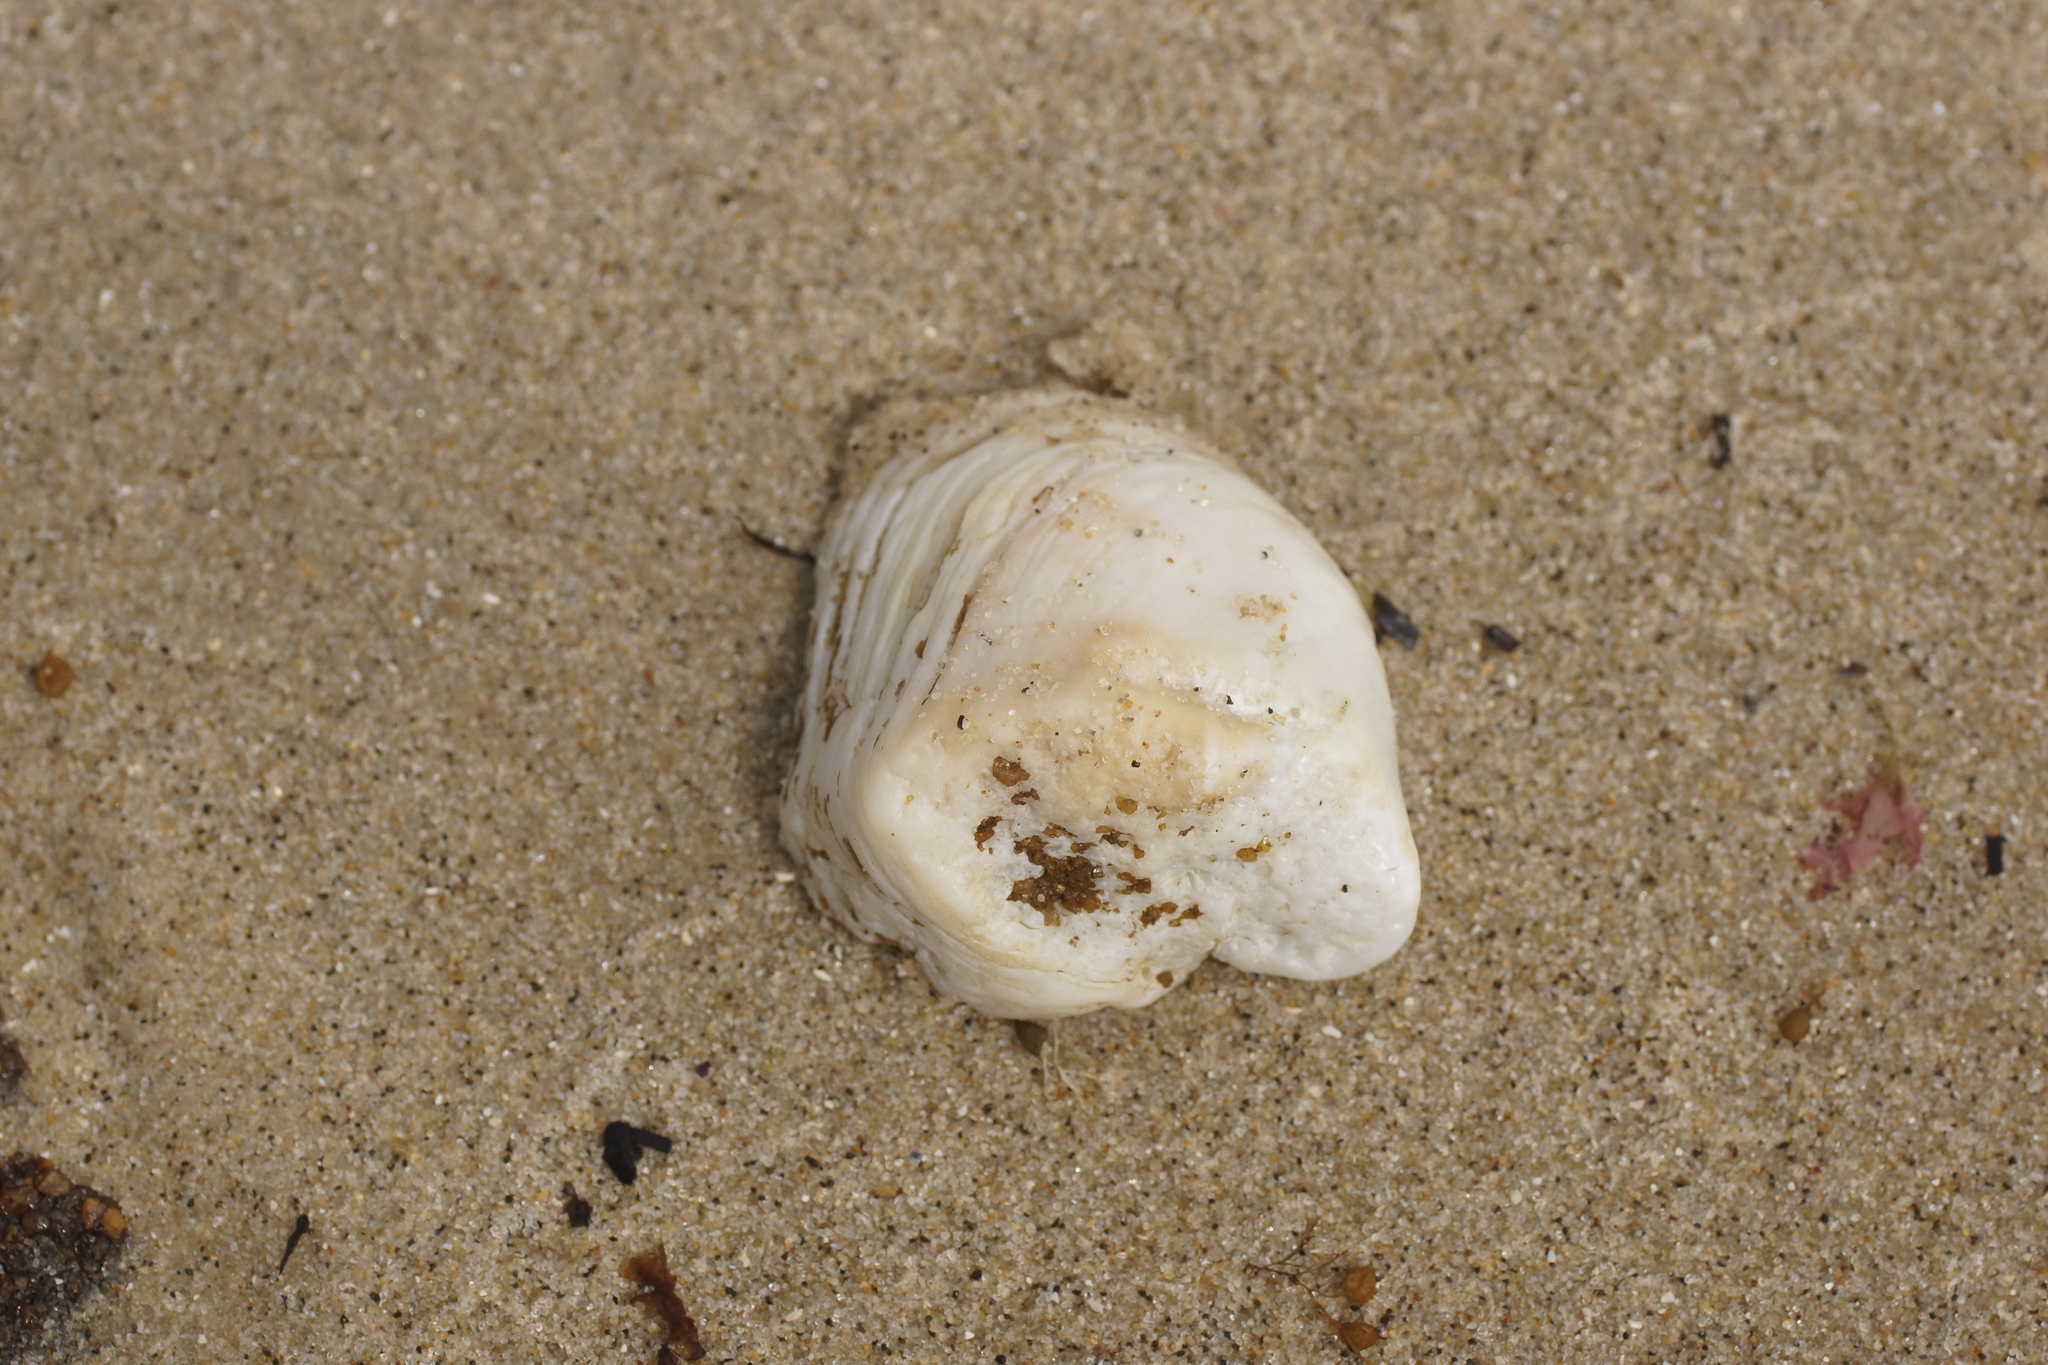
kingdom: Animalia
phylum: Mollusca
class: Bivalvia
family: Cleidothaeridae
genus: Cleidothaerus
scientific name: Cleidothaerus albidus
